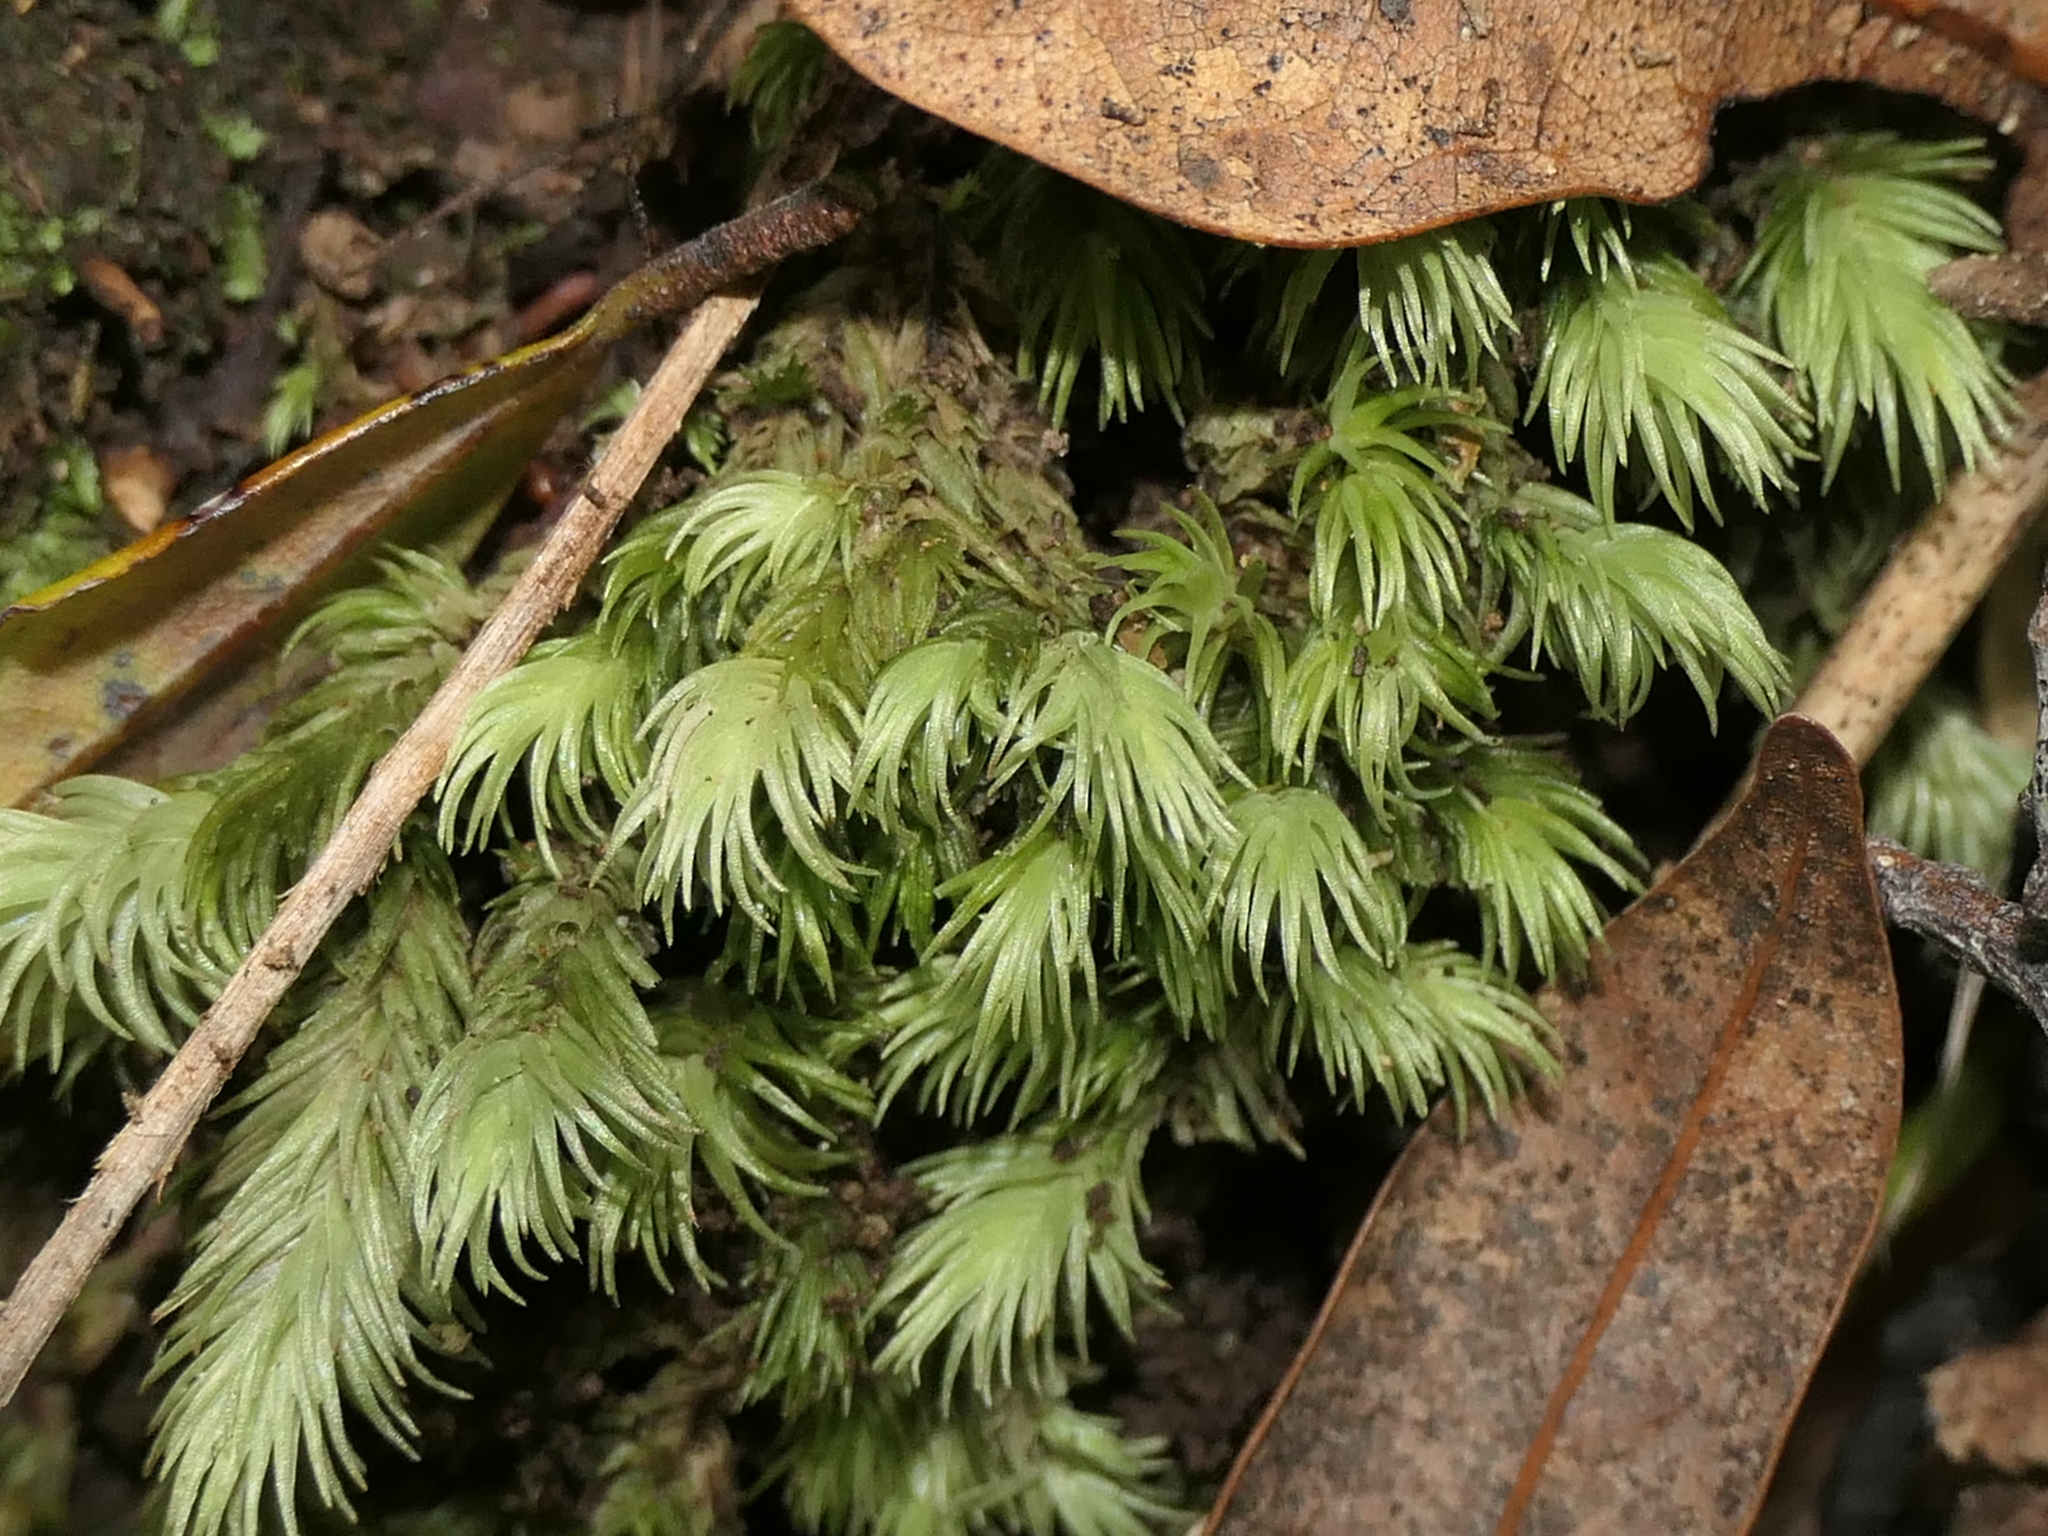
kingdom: Plantae
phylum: Bryophyta
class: Bryopsida
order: Dicranales
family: Leucobryaceae
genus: Leucobryum
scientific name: Leucobryum javense
